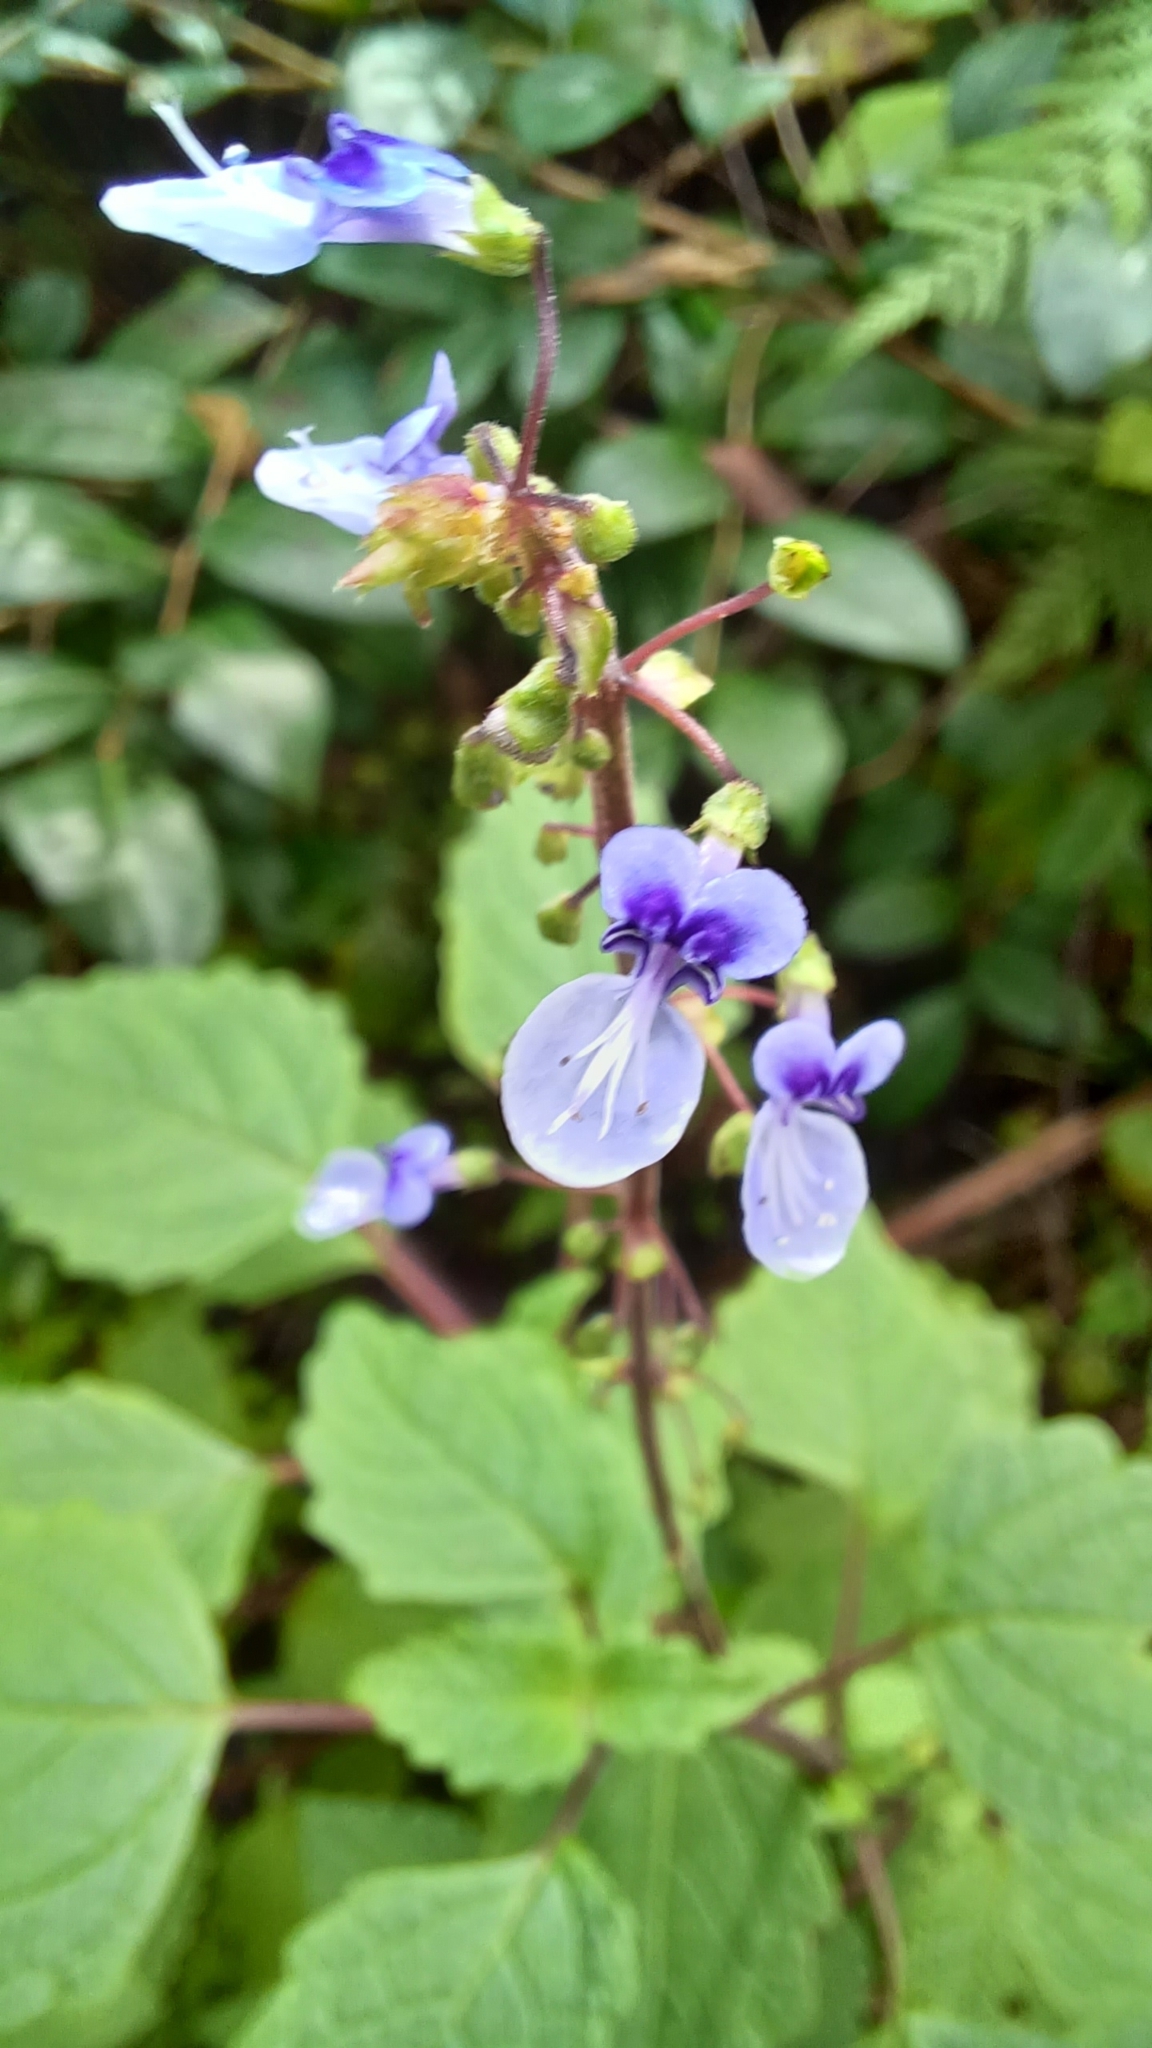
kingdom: Plantae
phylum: Tracheophyta
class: Magnoliopsida
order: Lamiales
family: Lamiaceae
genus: Coleus
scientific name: Coleus australis
